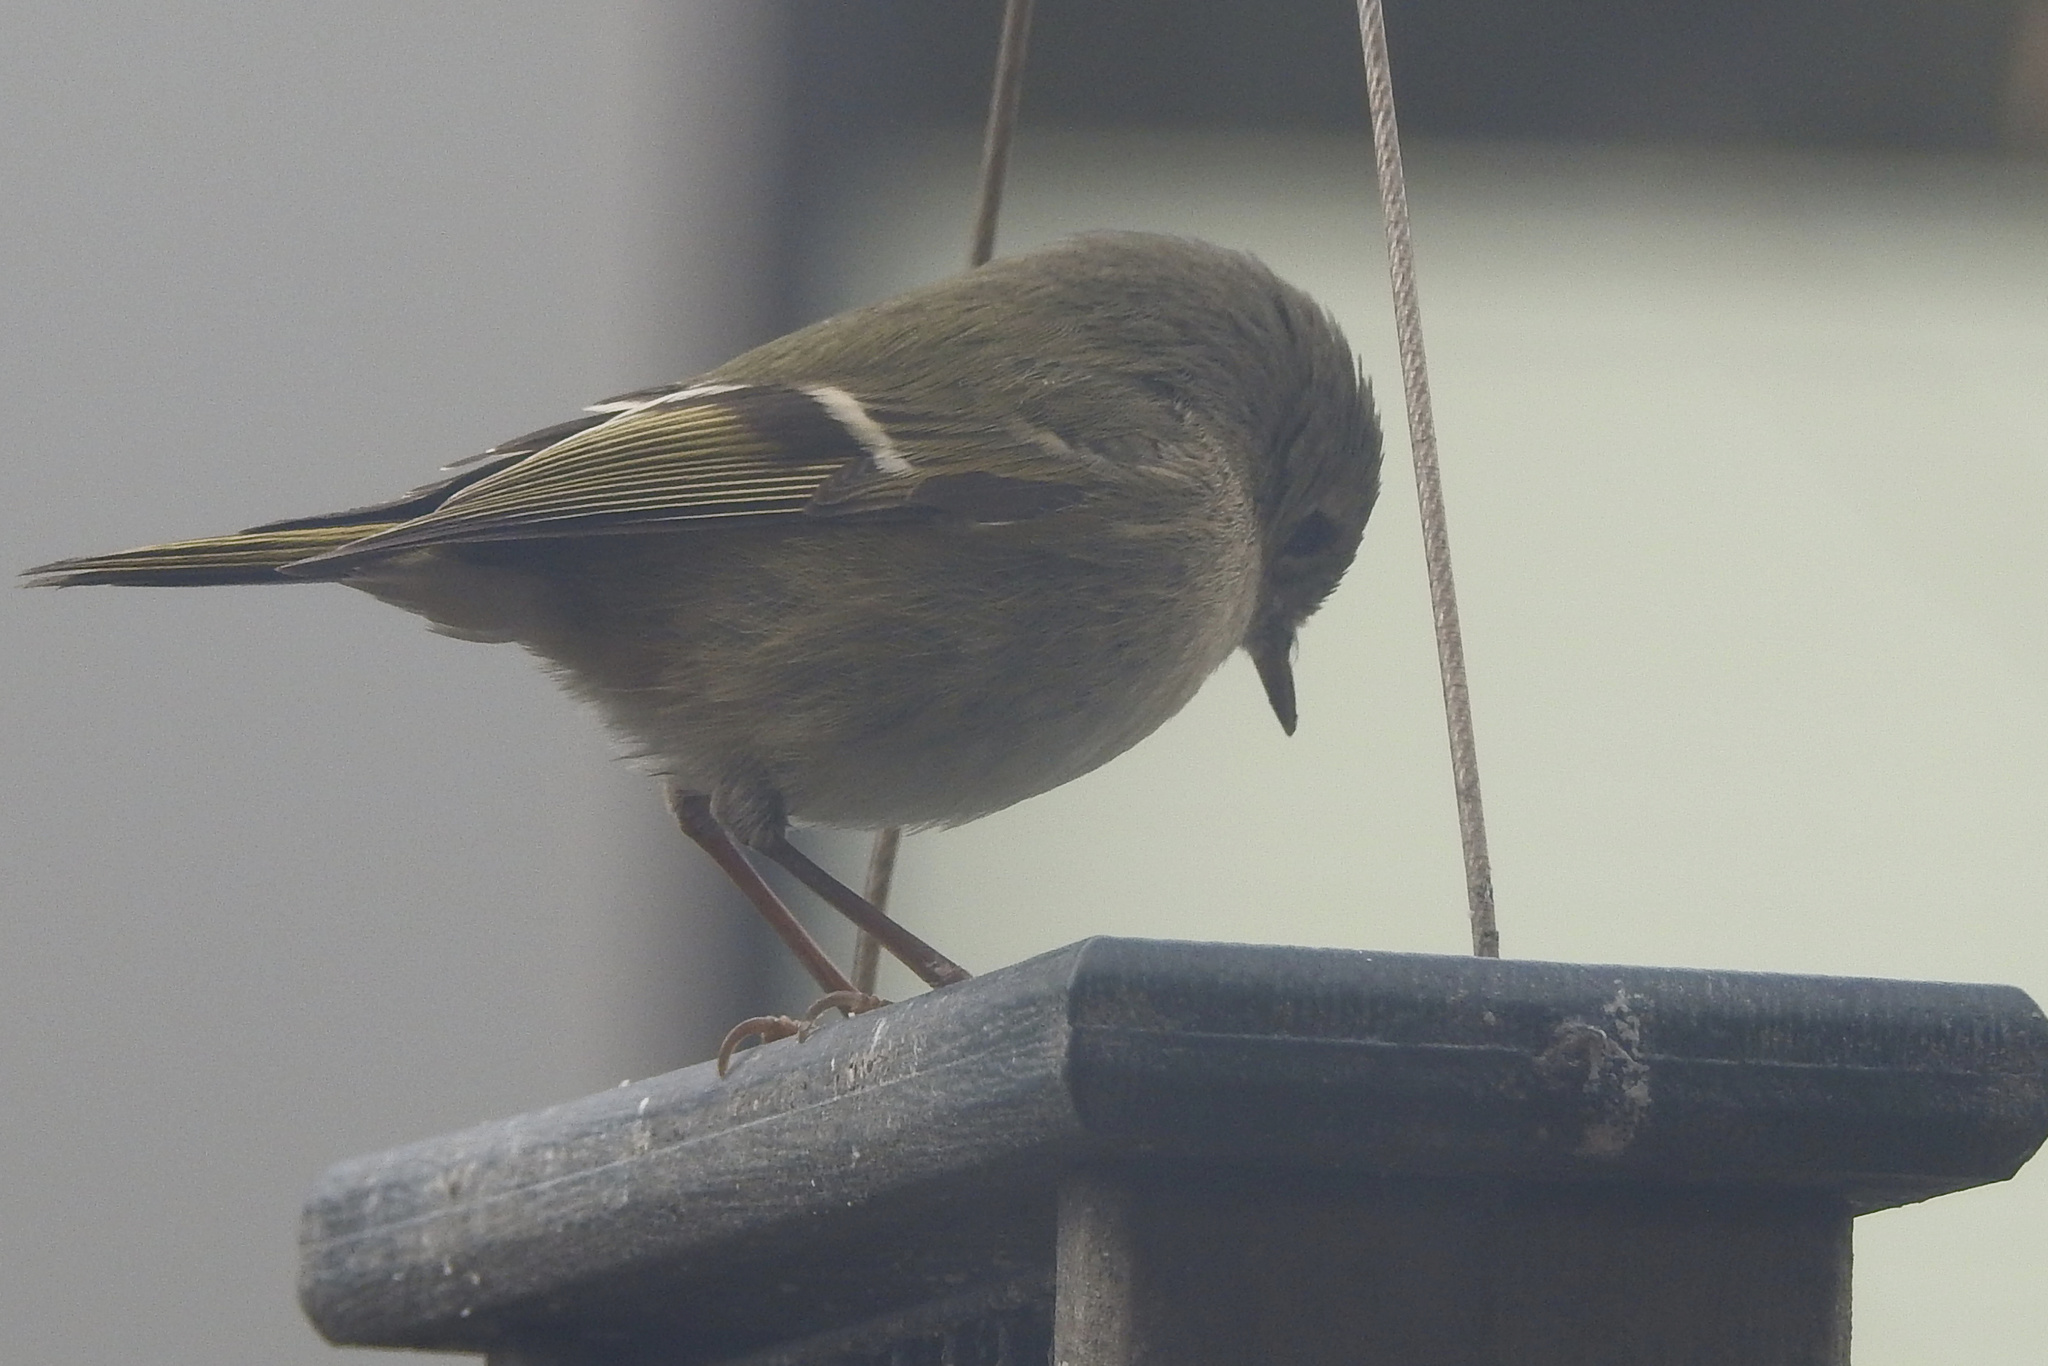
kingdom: Animalia
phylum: Chordata
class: Aves
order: Passeriformes
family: Regulidae
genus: Regulus
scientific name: Regulus calendula
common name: Ruby-crowned kinglet
